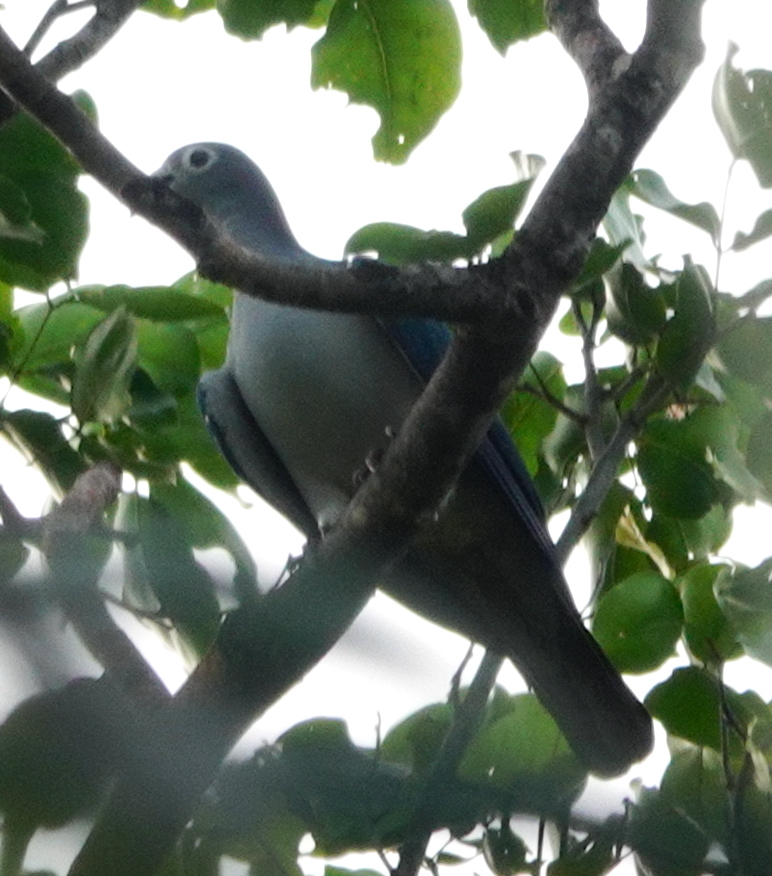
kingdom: Animalia
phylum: Chordata
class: Aves
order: Columbiformes
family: Columbidae
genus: Ducula
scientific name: Ducula perspicillata
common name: Spectacled imperial pigeon
